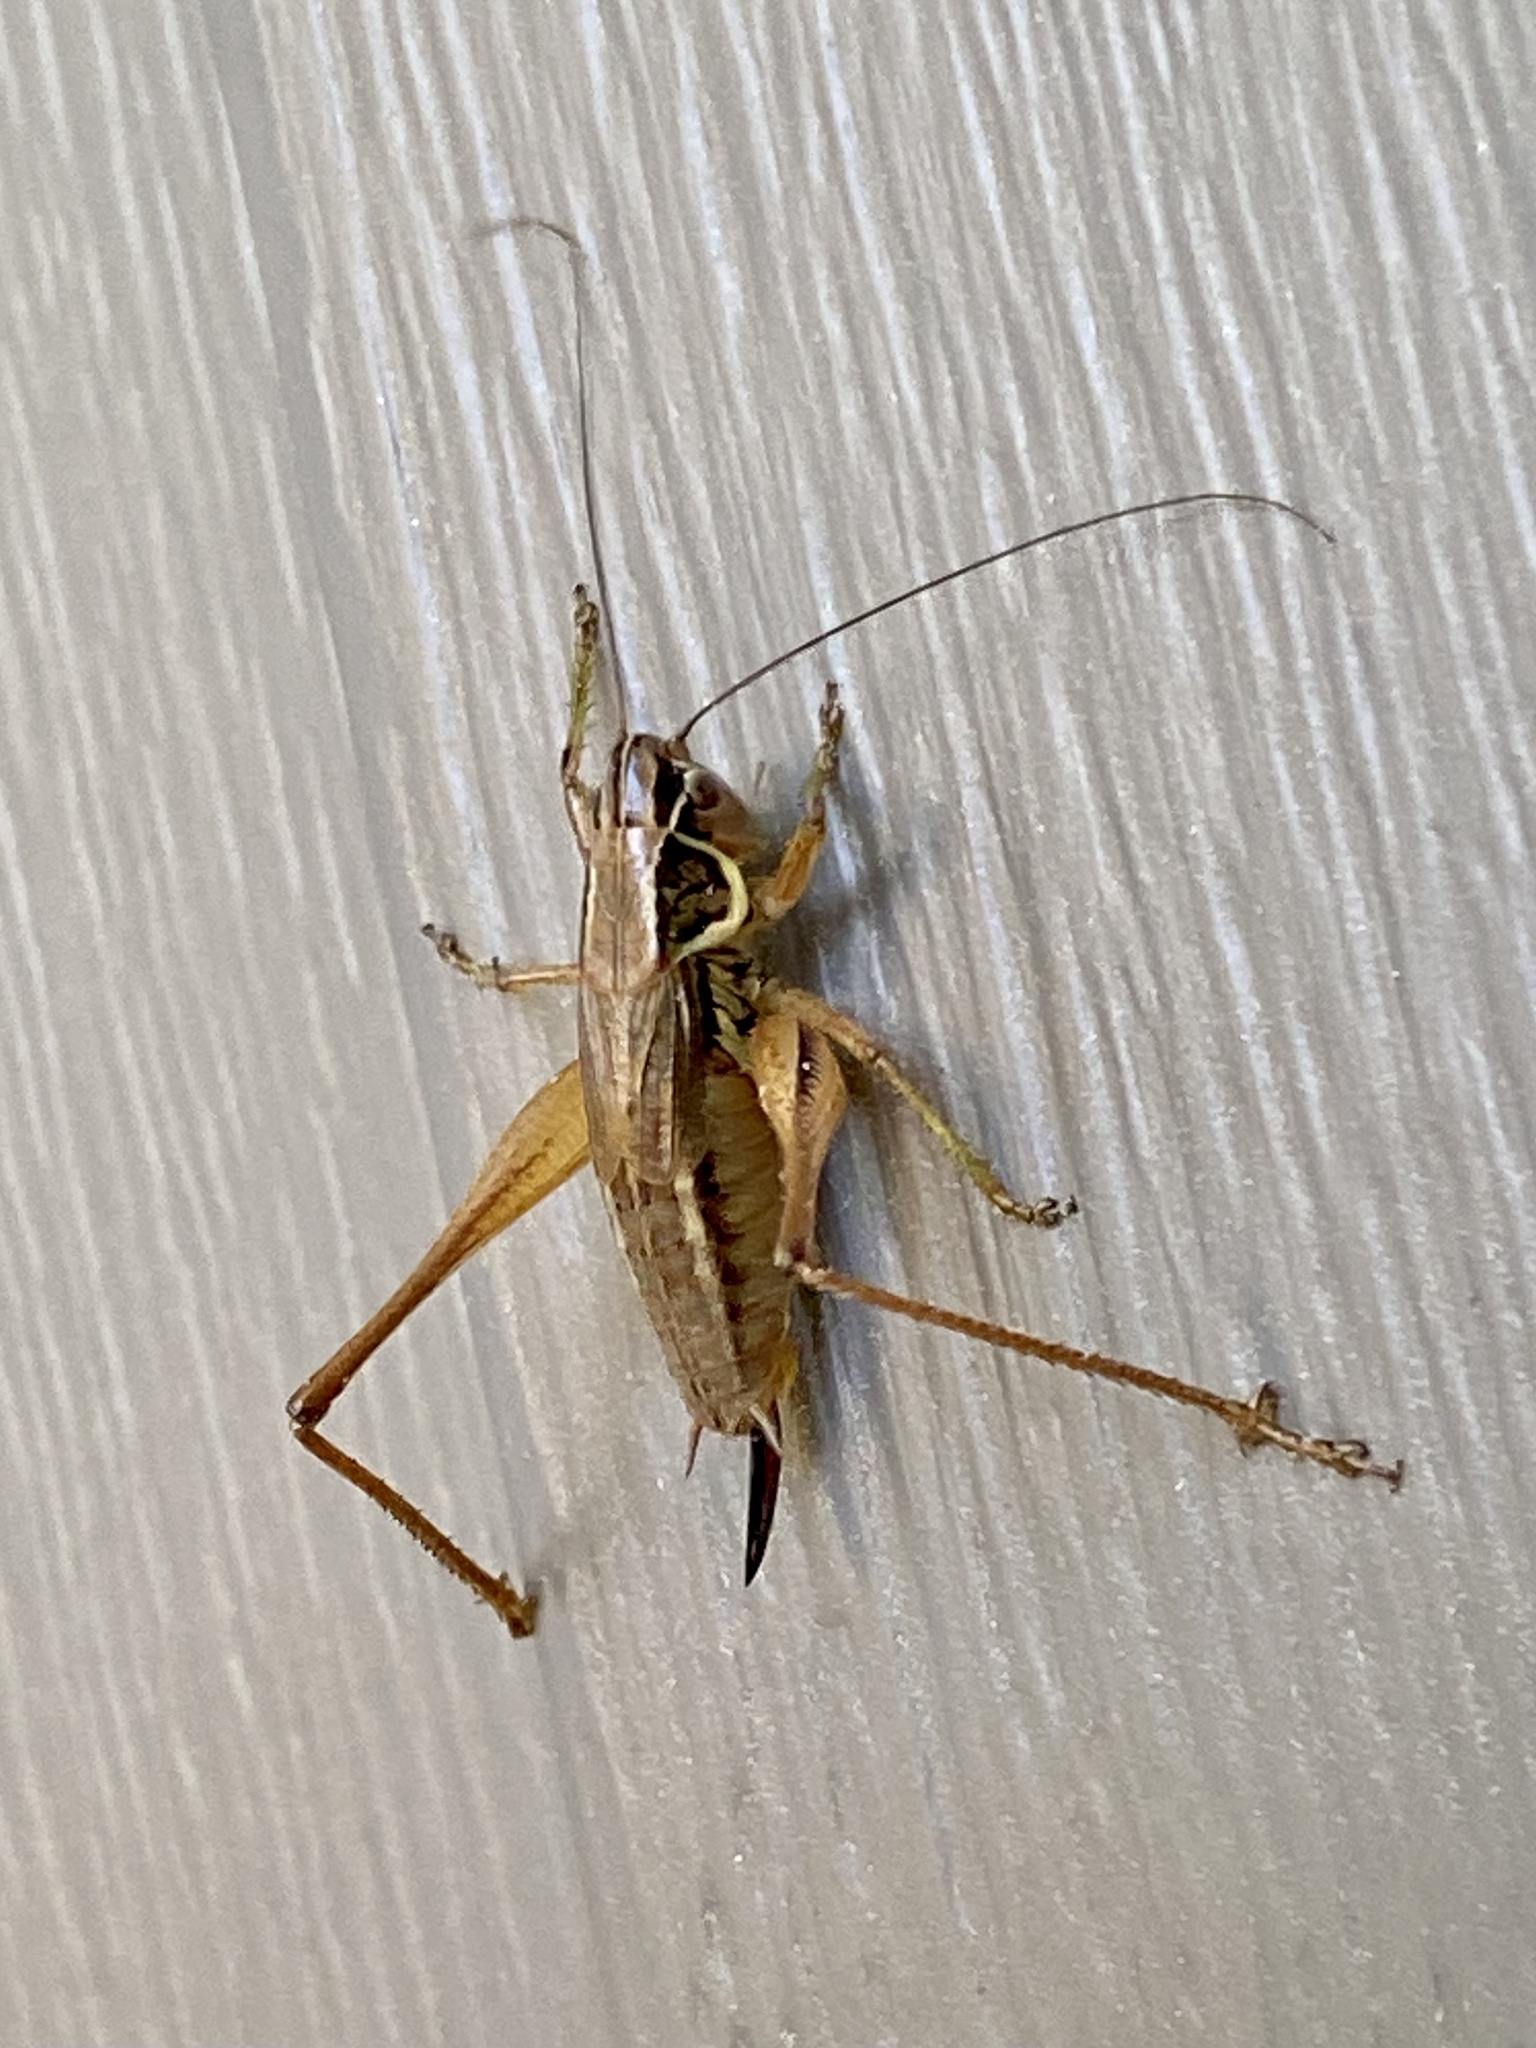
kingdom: Animalia
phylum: Arthropoda
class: Insecta
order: Orthoptera
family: Tettigoniidae
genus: Roeseliana
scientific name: Roeseliana roeselii
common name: Roesel's bush cricket
